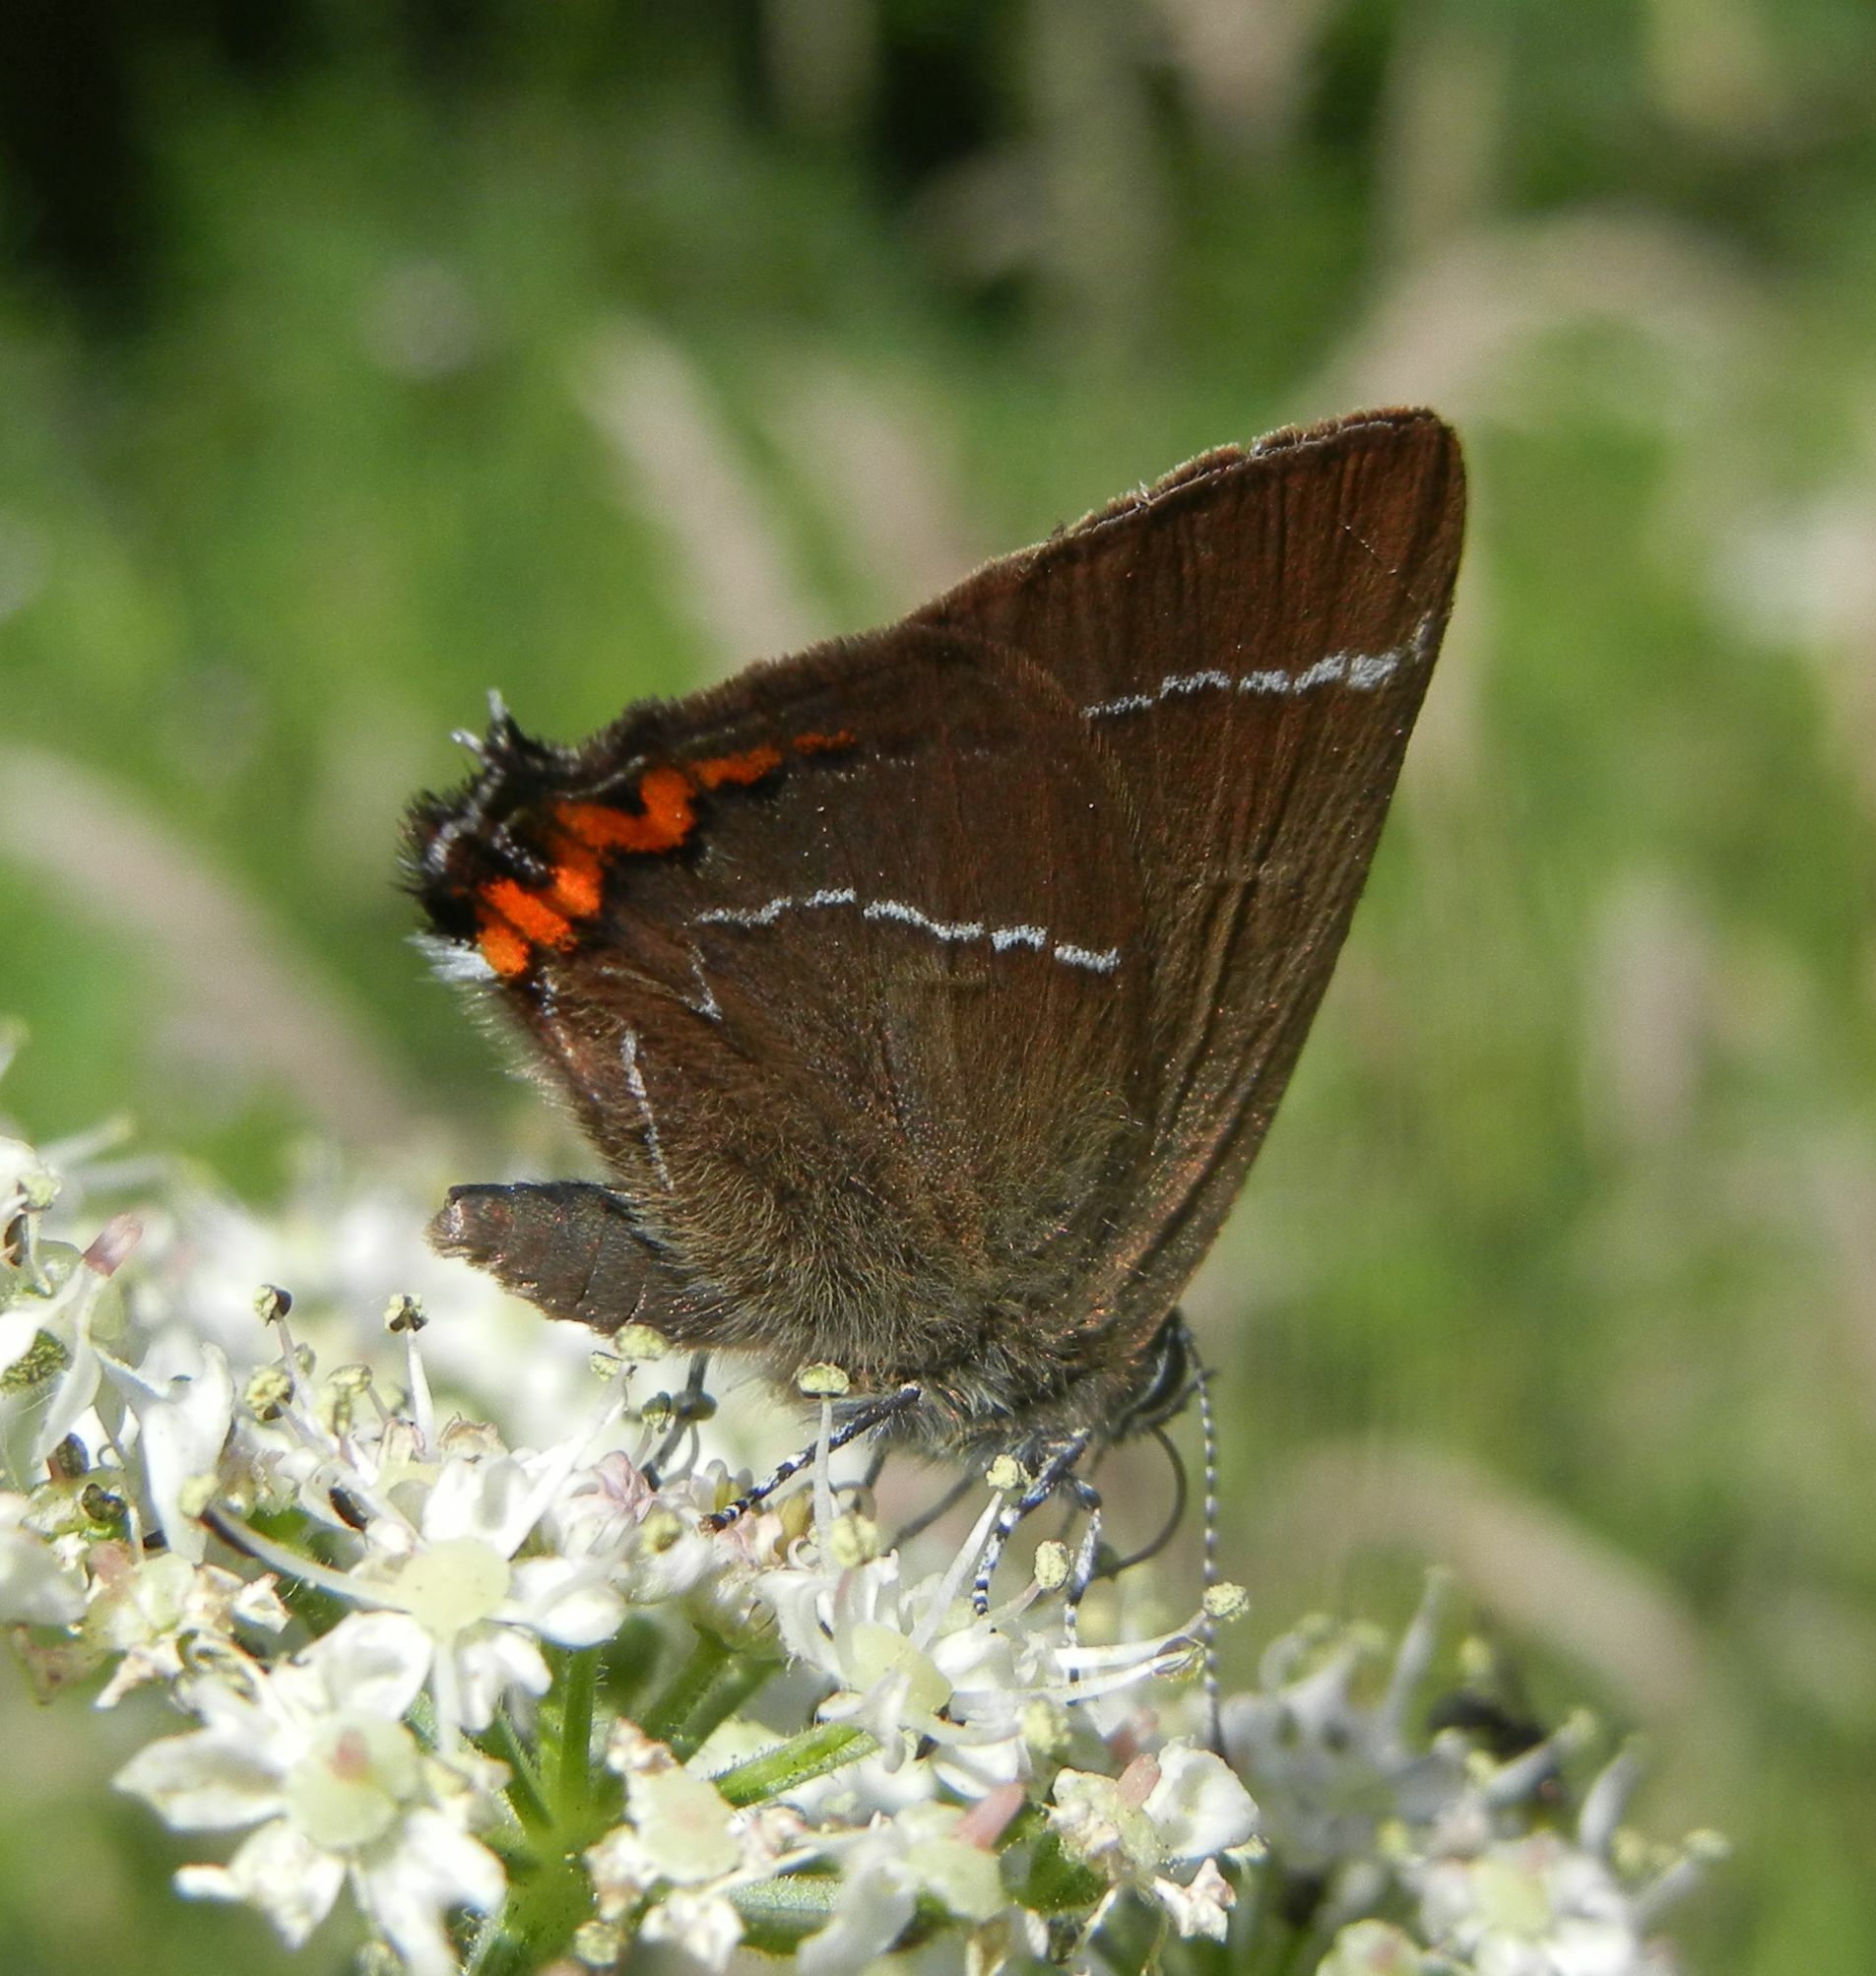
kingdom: Animalia
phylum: Arthropoda
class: Insecta
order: Lepidoptera
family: Lycaenidae
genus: Satyrium
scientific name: Satyrium w-album
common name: White-letter hairstreak
